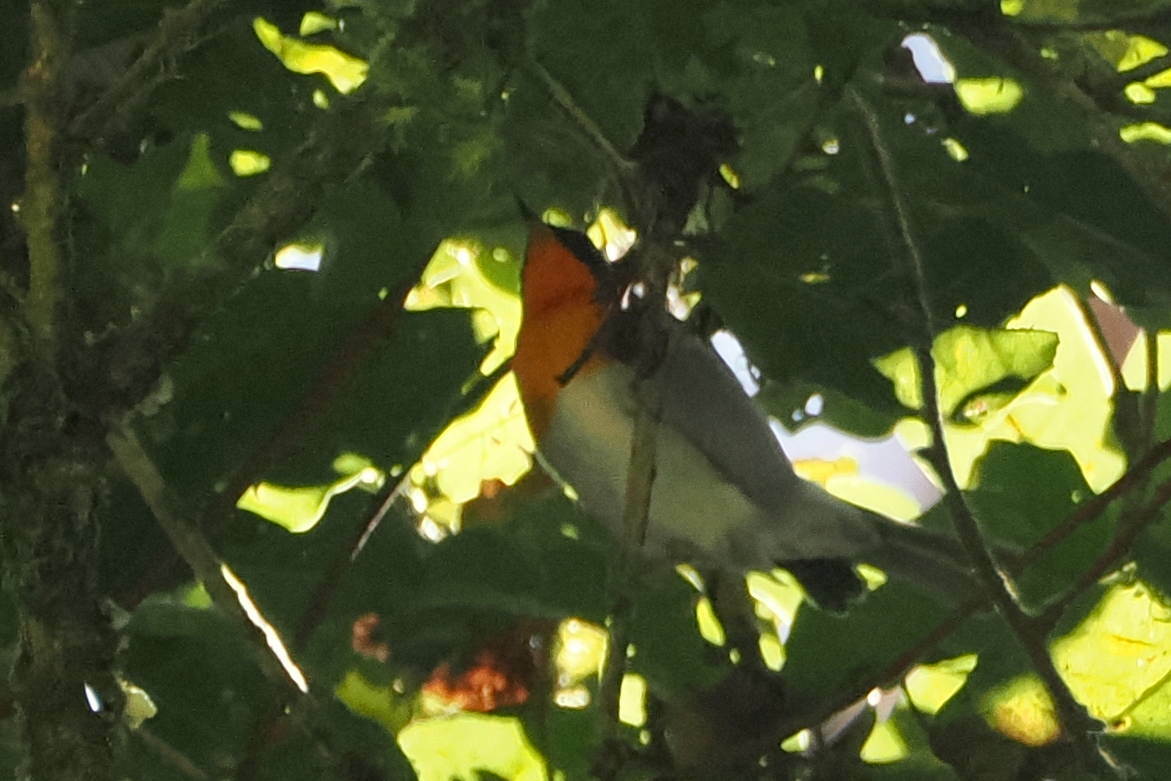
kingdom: Animalia
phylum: Chordata
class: Aves
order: Passeriformes
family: Parulidae
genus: Oreothlypis
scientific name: Oreothlypis gutturalis
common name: Flame-throated warbler
